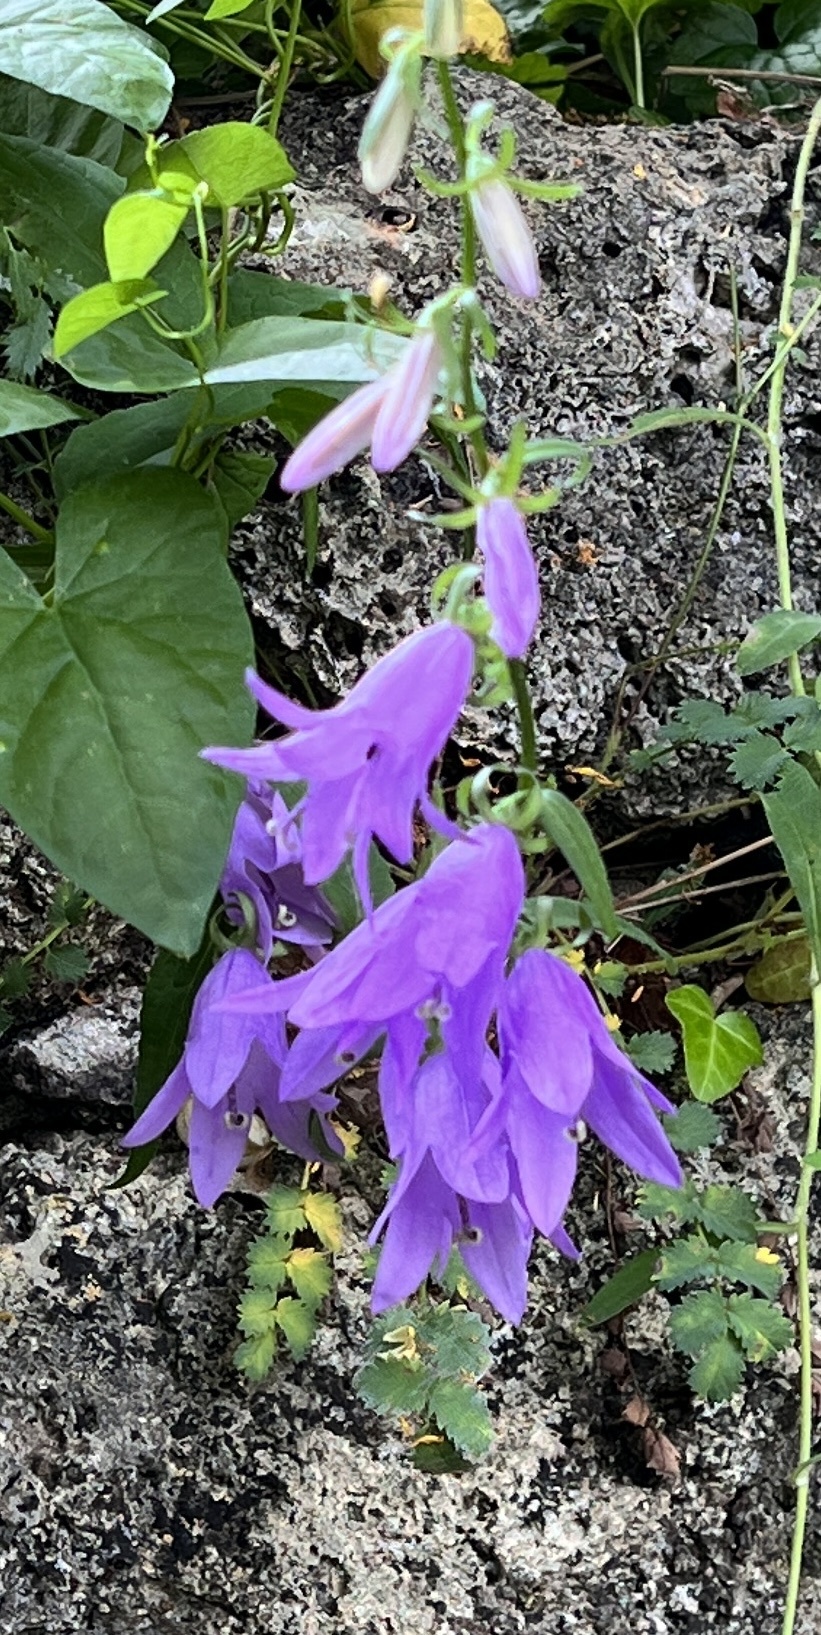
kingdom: Plantae
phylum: Tracheophyta
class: Magnoliopsida
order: Asterales
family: Campanulaceae
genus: Campanula
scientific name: Campanula rapunculoides
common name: Creeping bellflower
